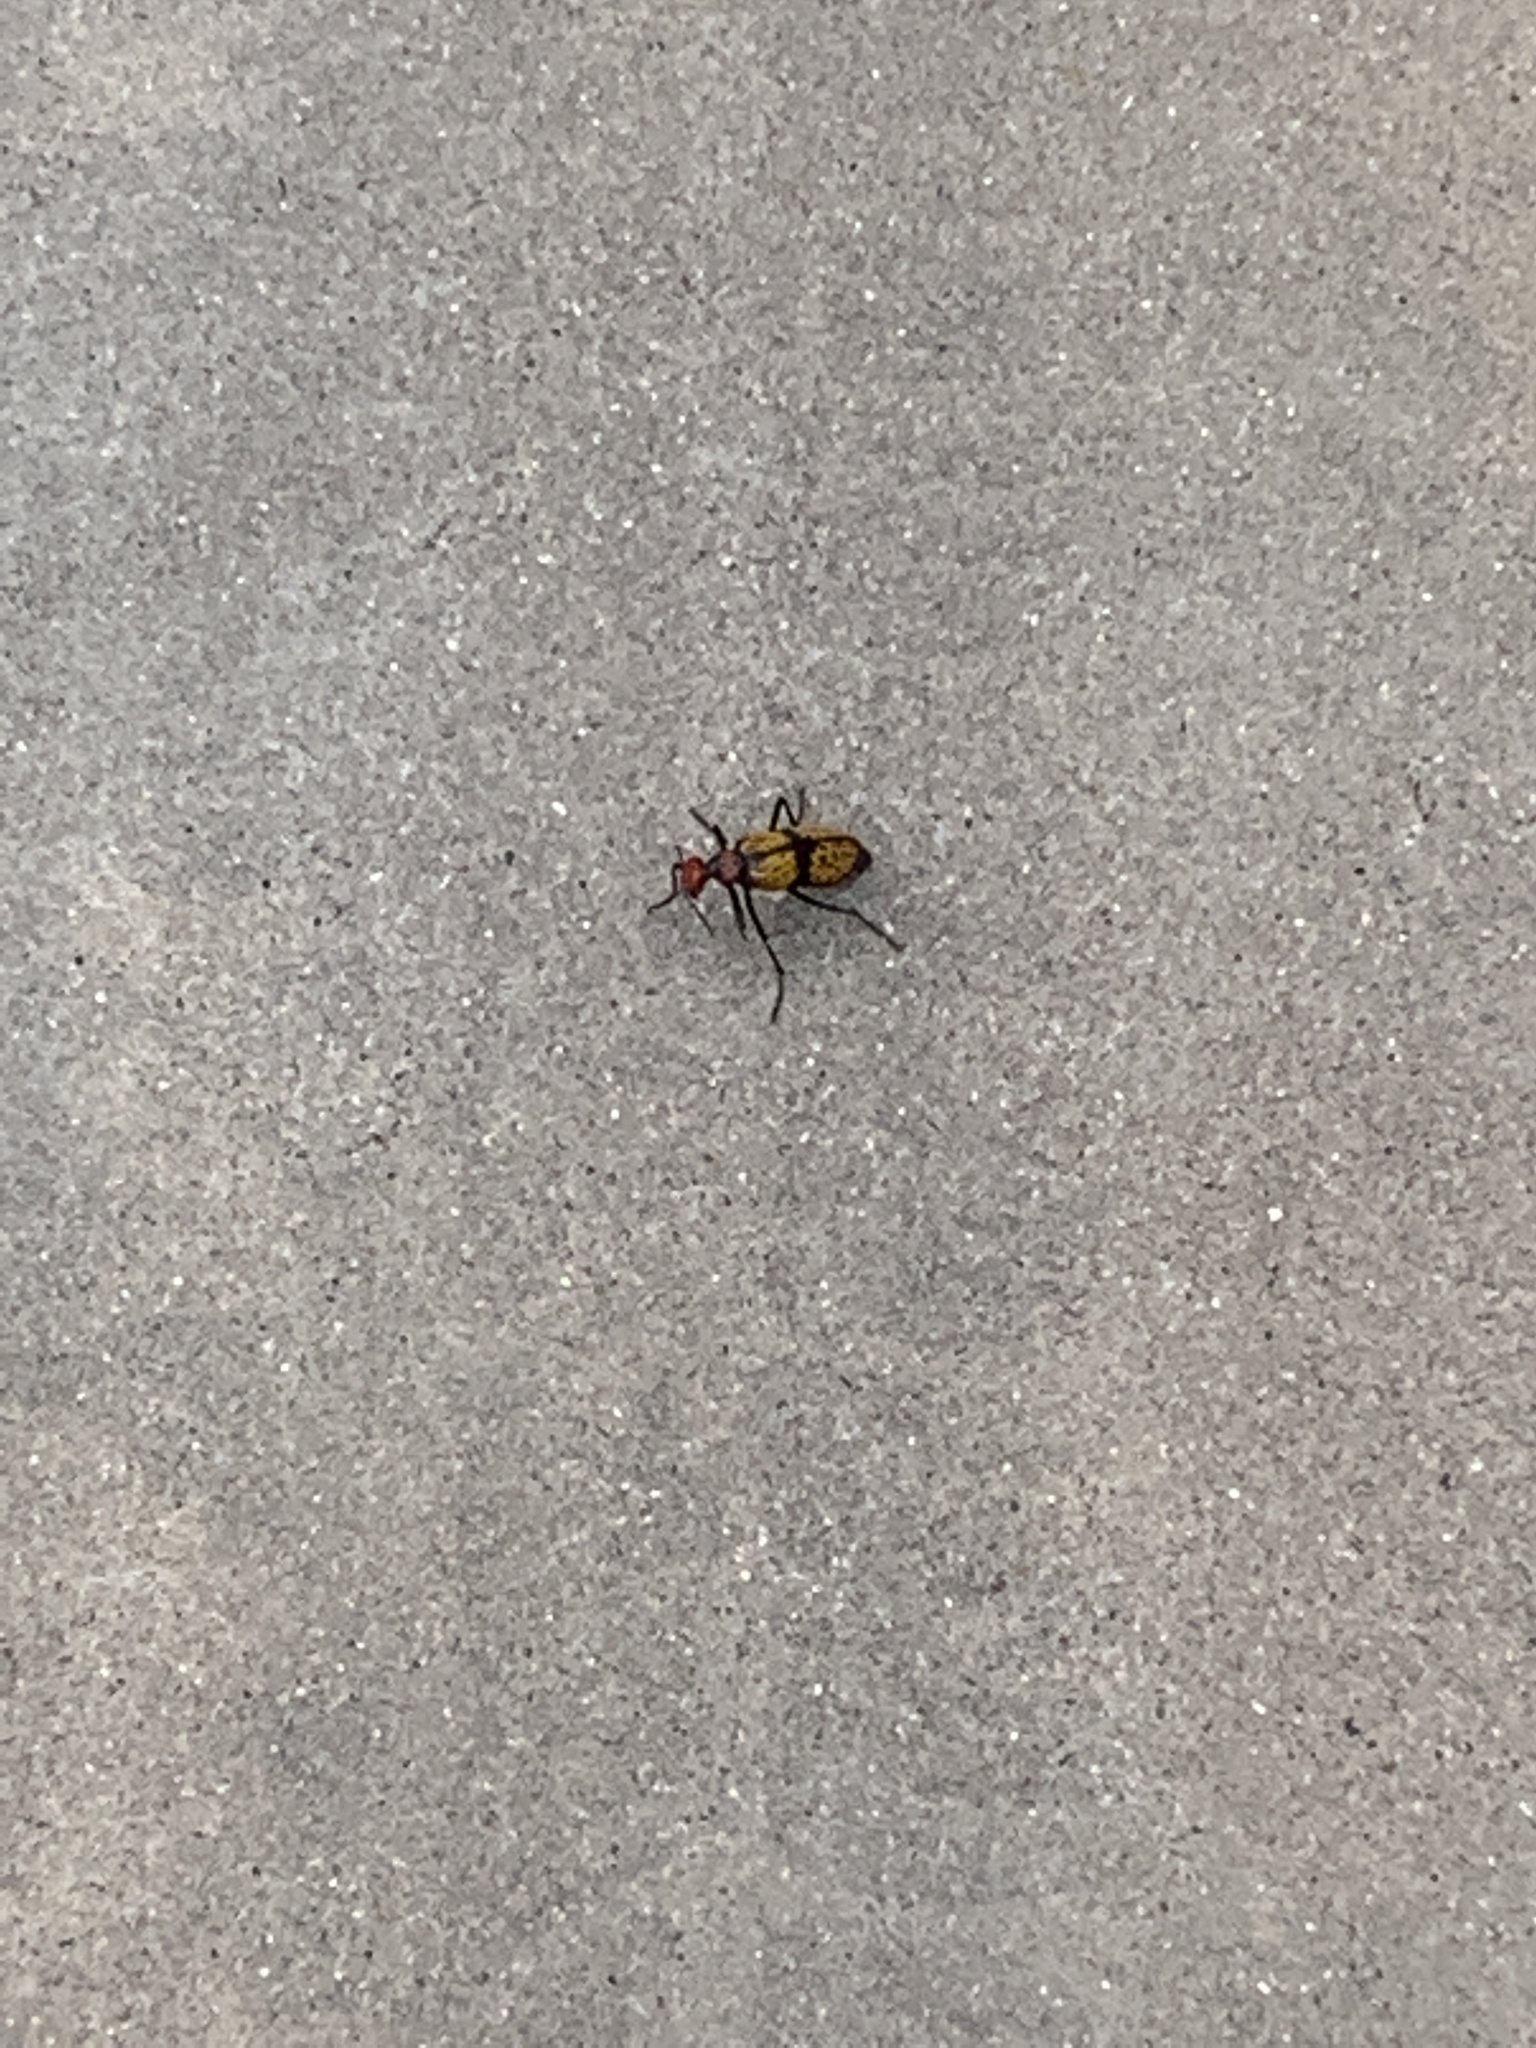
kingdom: Animalia
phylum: Arthropoda
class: Insecta
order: Coleoptera
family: Meloidae
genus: Tegrodera
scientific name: Tegrodera aloga
